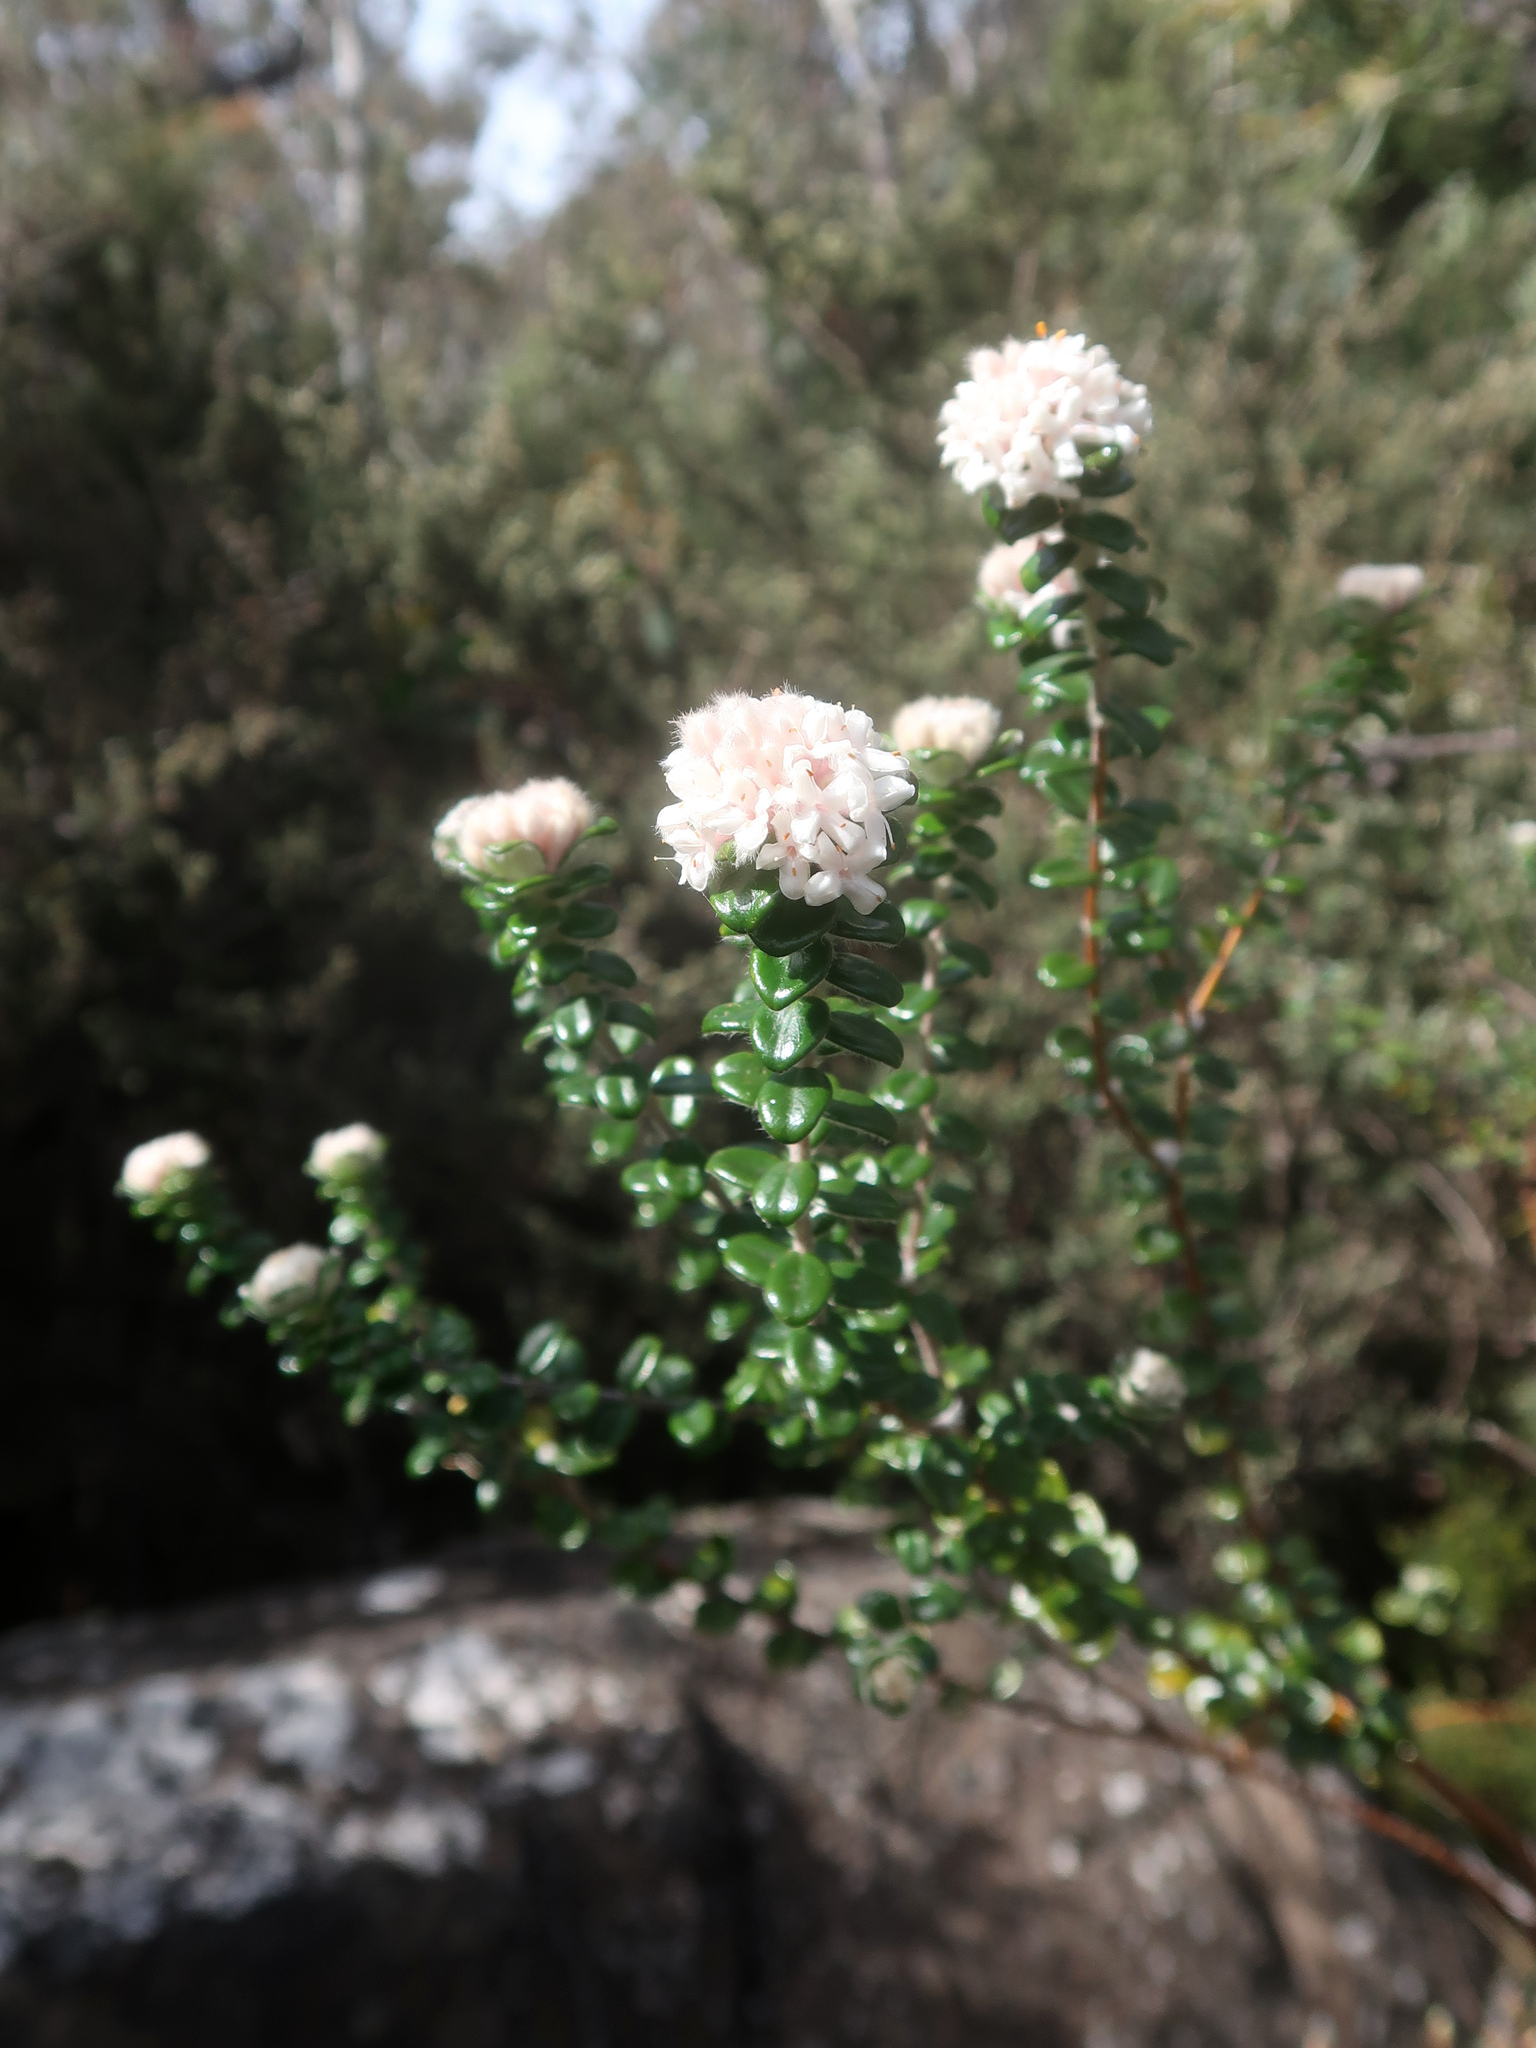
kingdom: Plantae
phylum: Tracheophyta
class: Magnoliopsida
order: Malvales
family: Thymelaeaceae
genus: Pimelea
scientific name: Pimelea nivea
